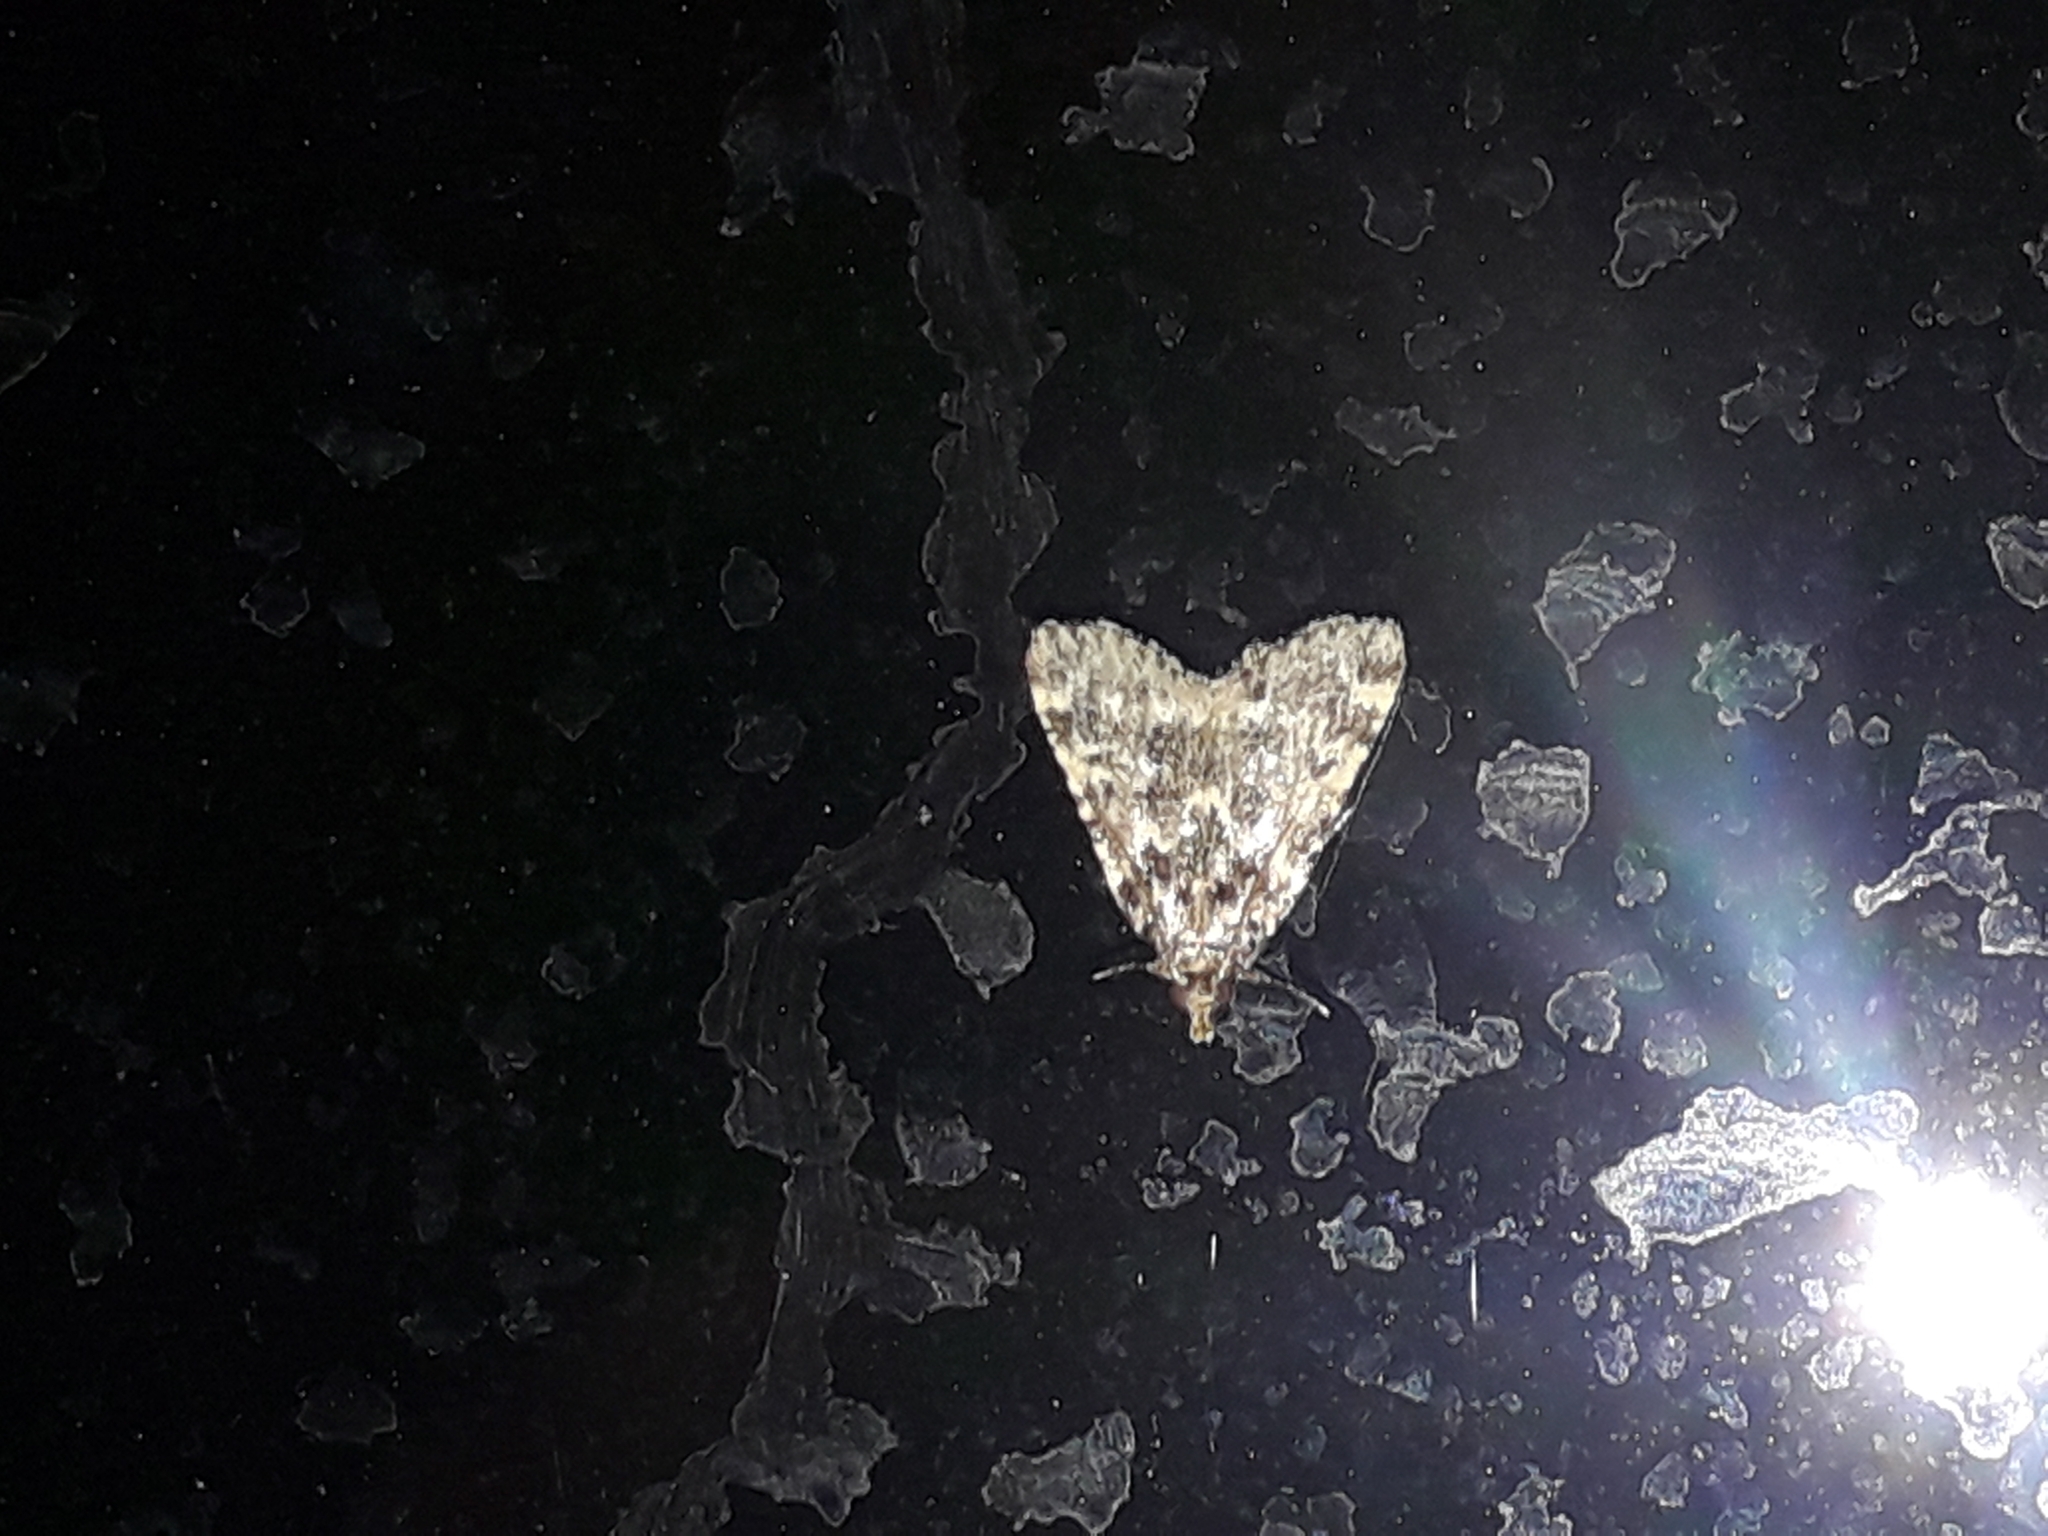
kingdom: Animalia
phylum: Arthropoda
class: Insecta
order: Lepidoptera
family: Pyralidae
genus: Aglossa
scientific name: Aglossa caprealis
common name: Small tabby
